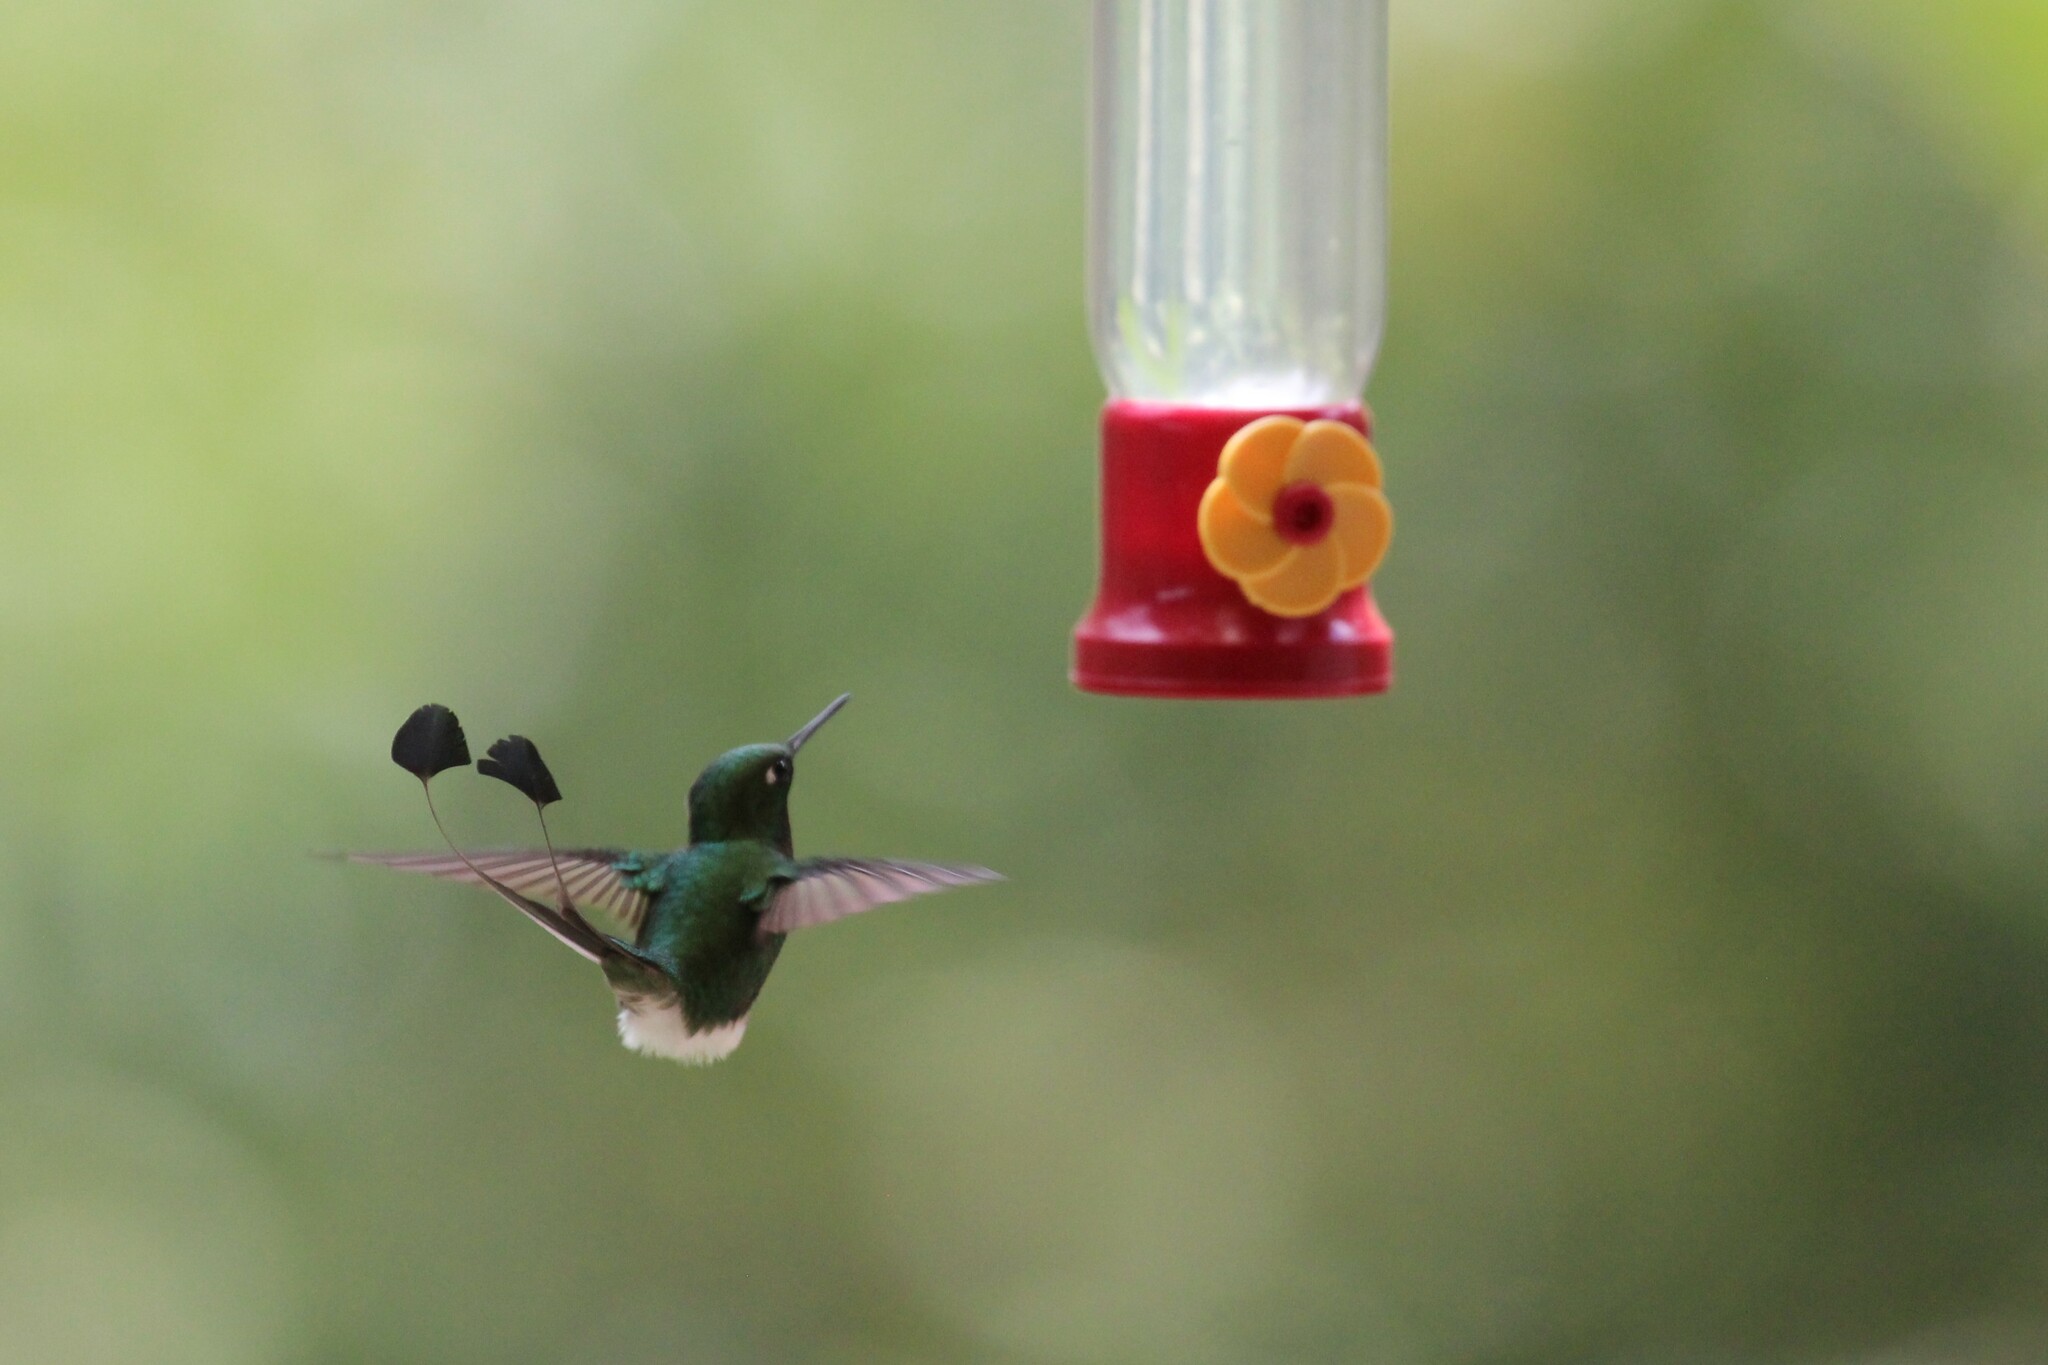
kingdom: Animalia
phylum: Chordata
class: Aves
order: Apodiformes
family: Trochilidae
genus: Ocreatus
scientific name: Ocreatus underwoodii
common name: Booted racket-tail
